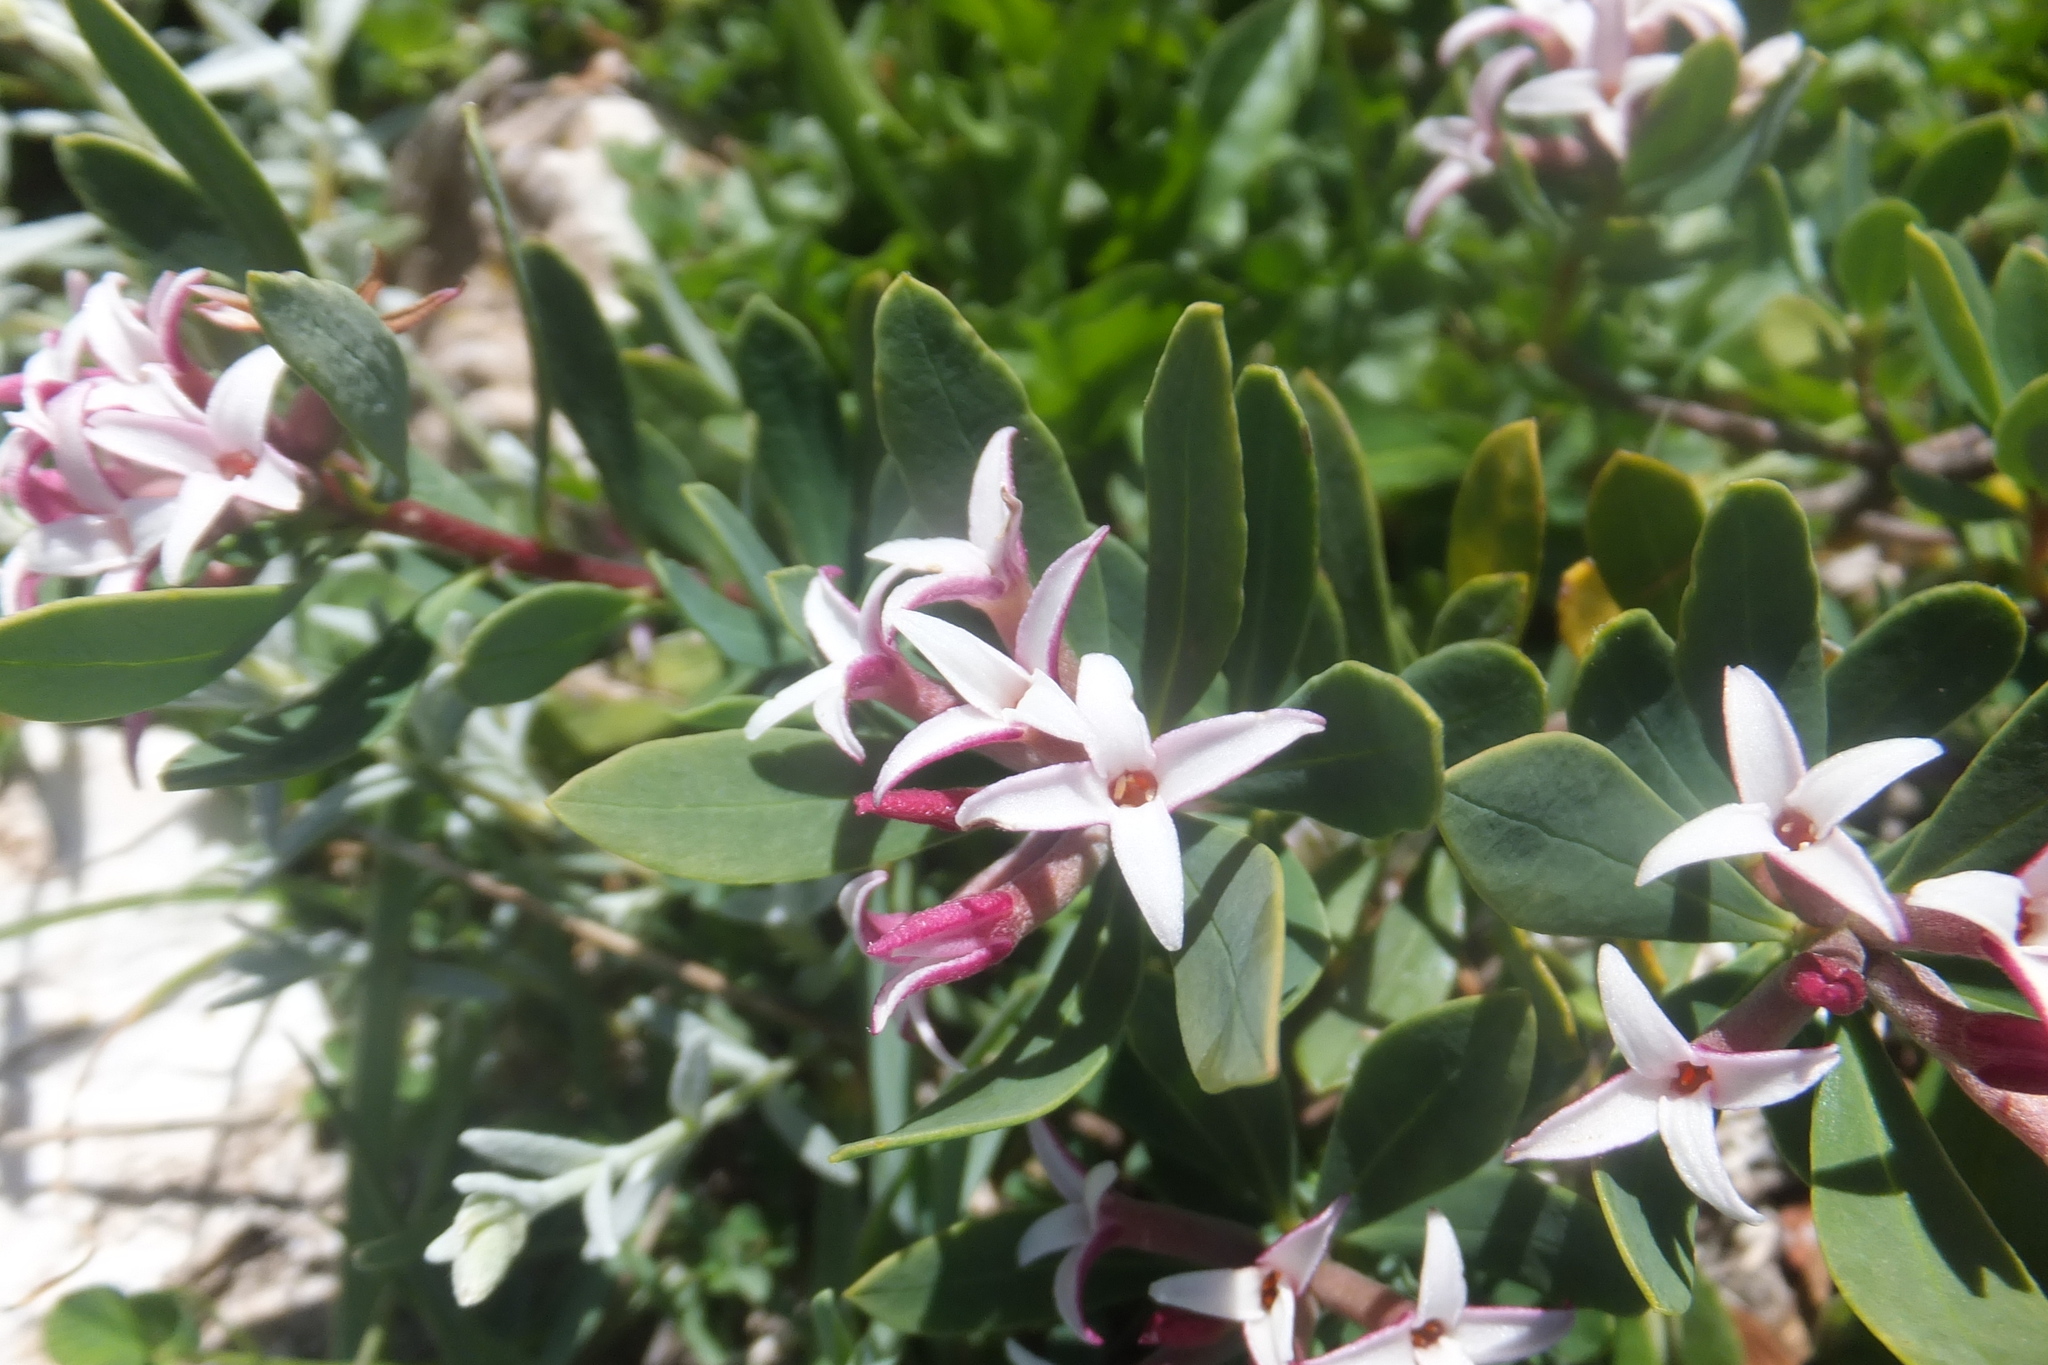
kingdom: Plantae
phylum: Tracheophyta
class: Magnoliopsida
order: Malvales
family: Thymelaeaceae
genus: Daphne
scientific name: Daphne oleoides
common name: Spurge-olive
